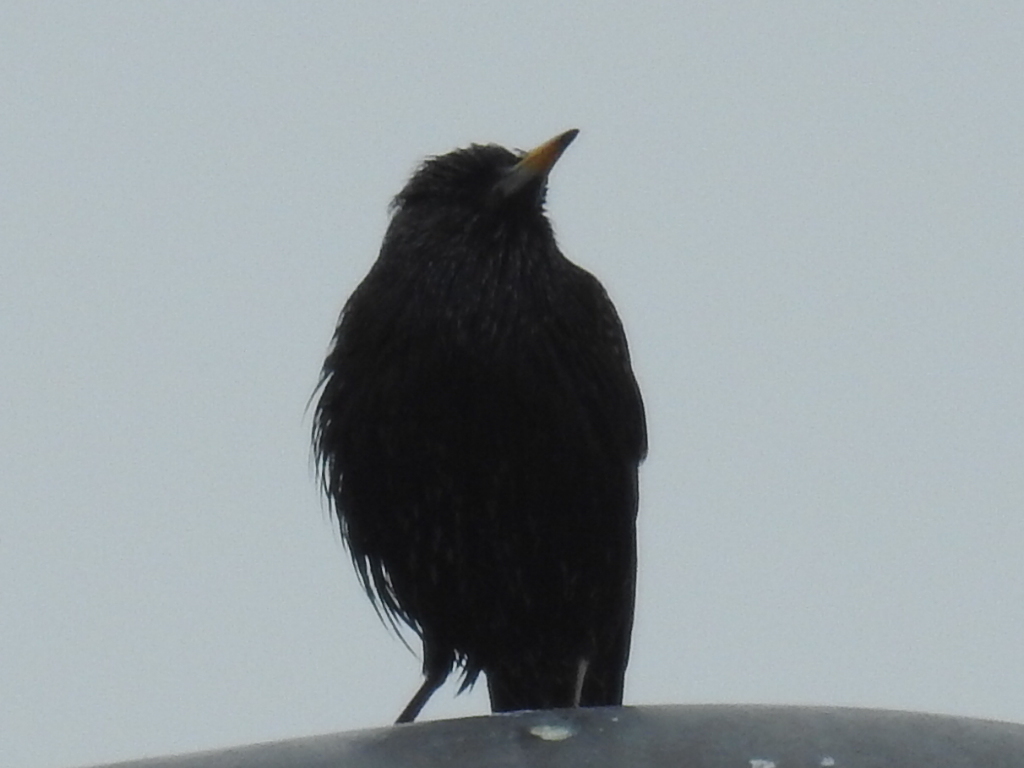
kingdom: Animalia
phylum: Chordata
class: Aves
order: Passeriformes
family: Sturnidae
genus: Sturnus
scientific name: Sturnus vulgaris
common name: Common starling
